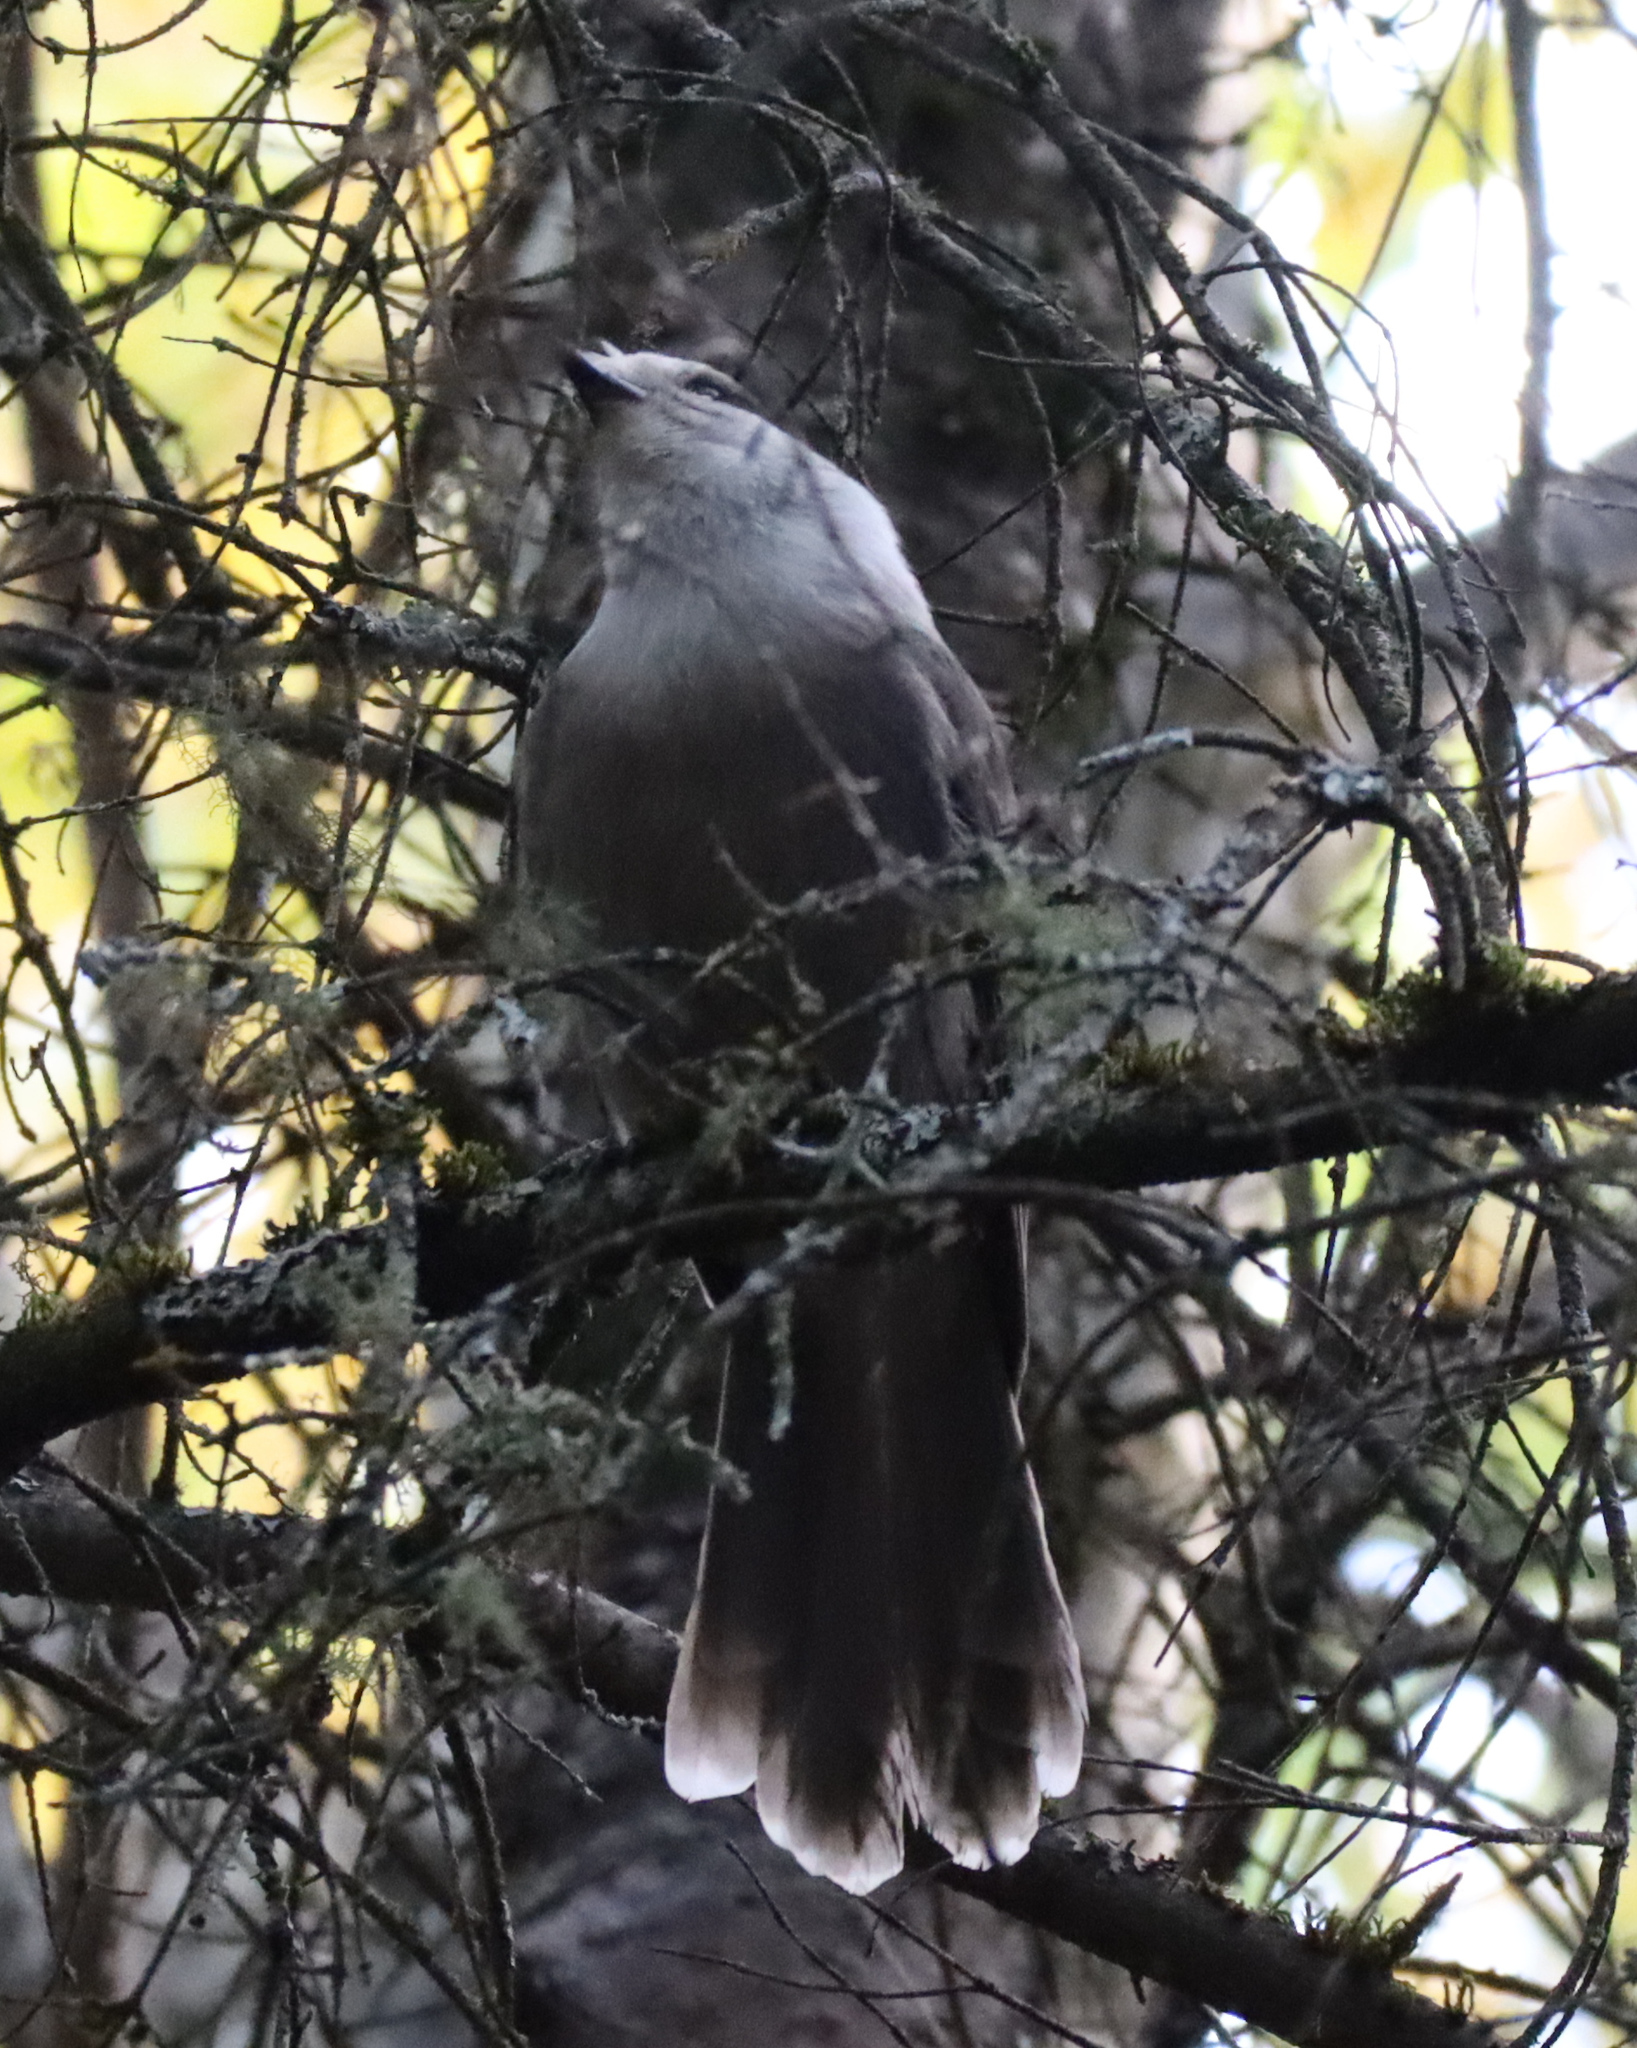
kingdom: Animalia
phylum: Chordata
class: Aves
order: Passeriformes
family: Corvidae
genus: Perisoreus
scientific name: Perisoreus canadensis
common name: Gray jay
